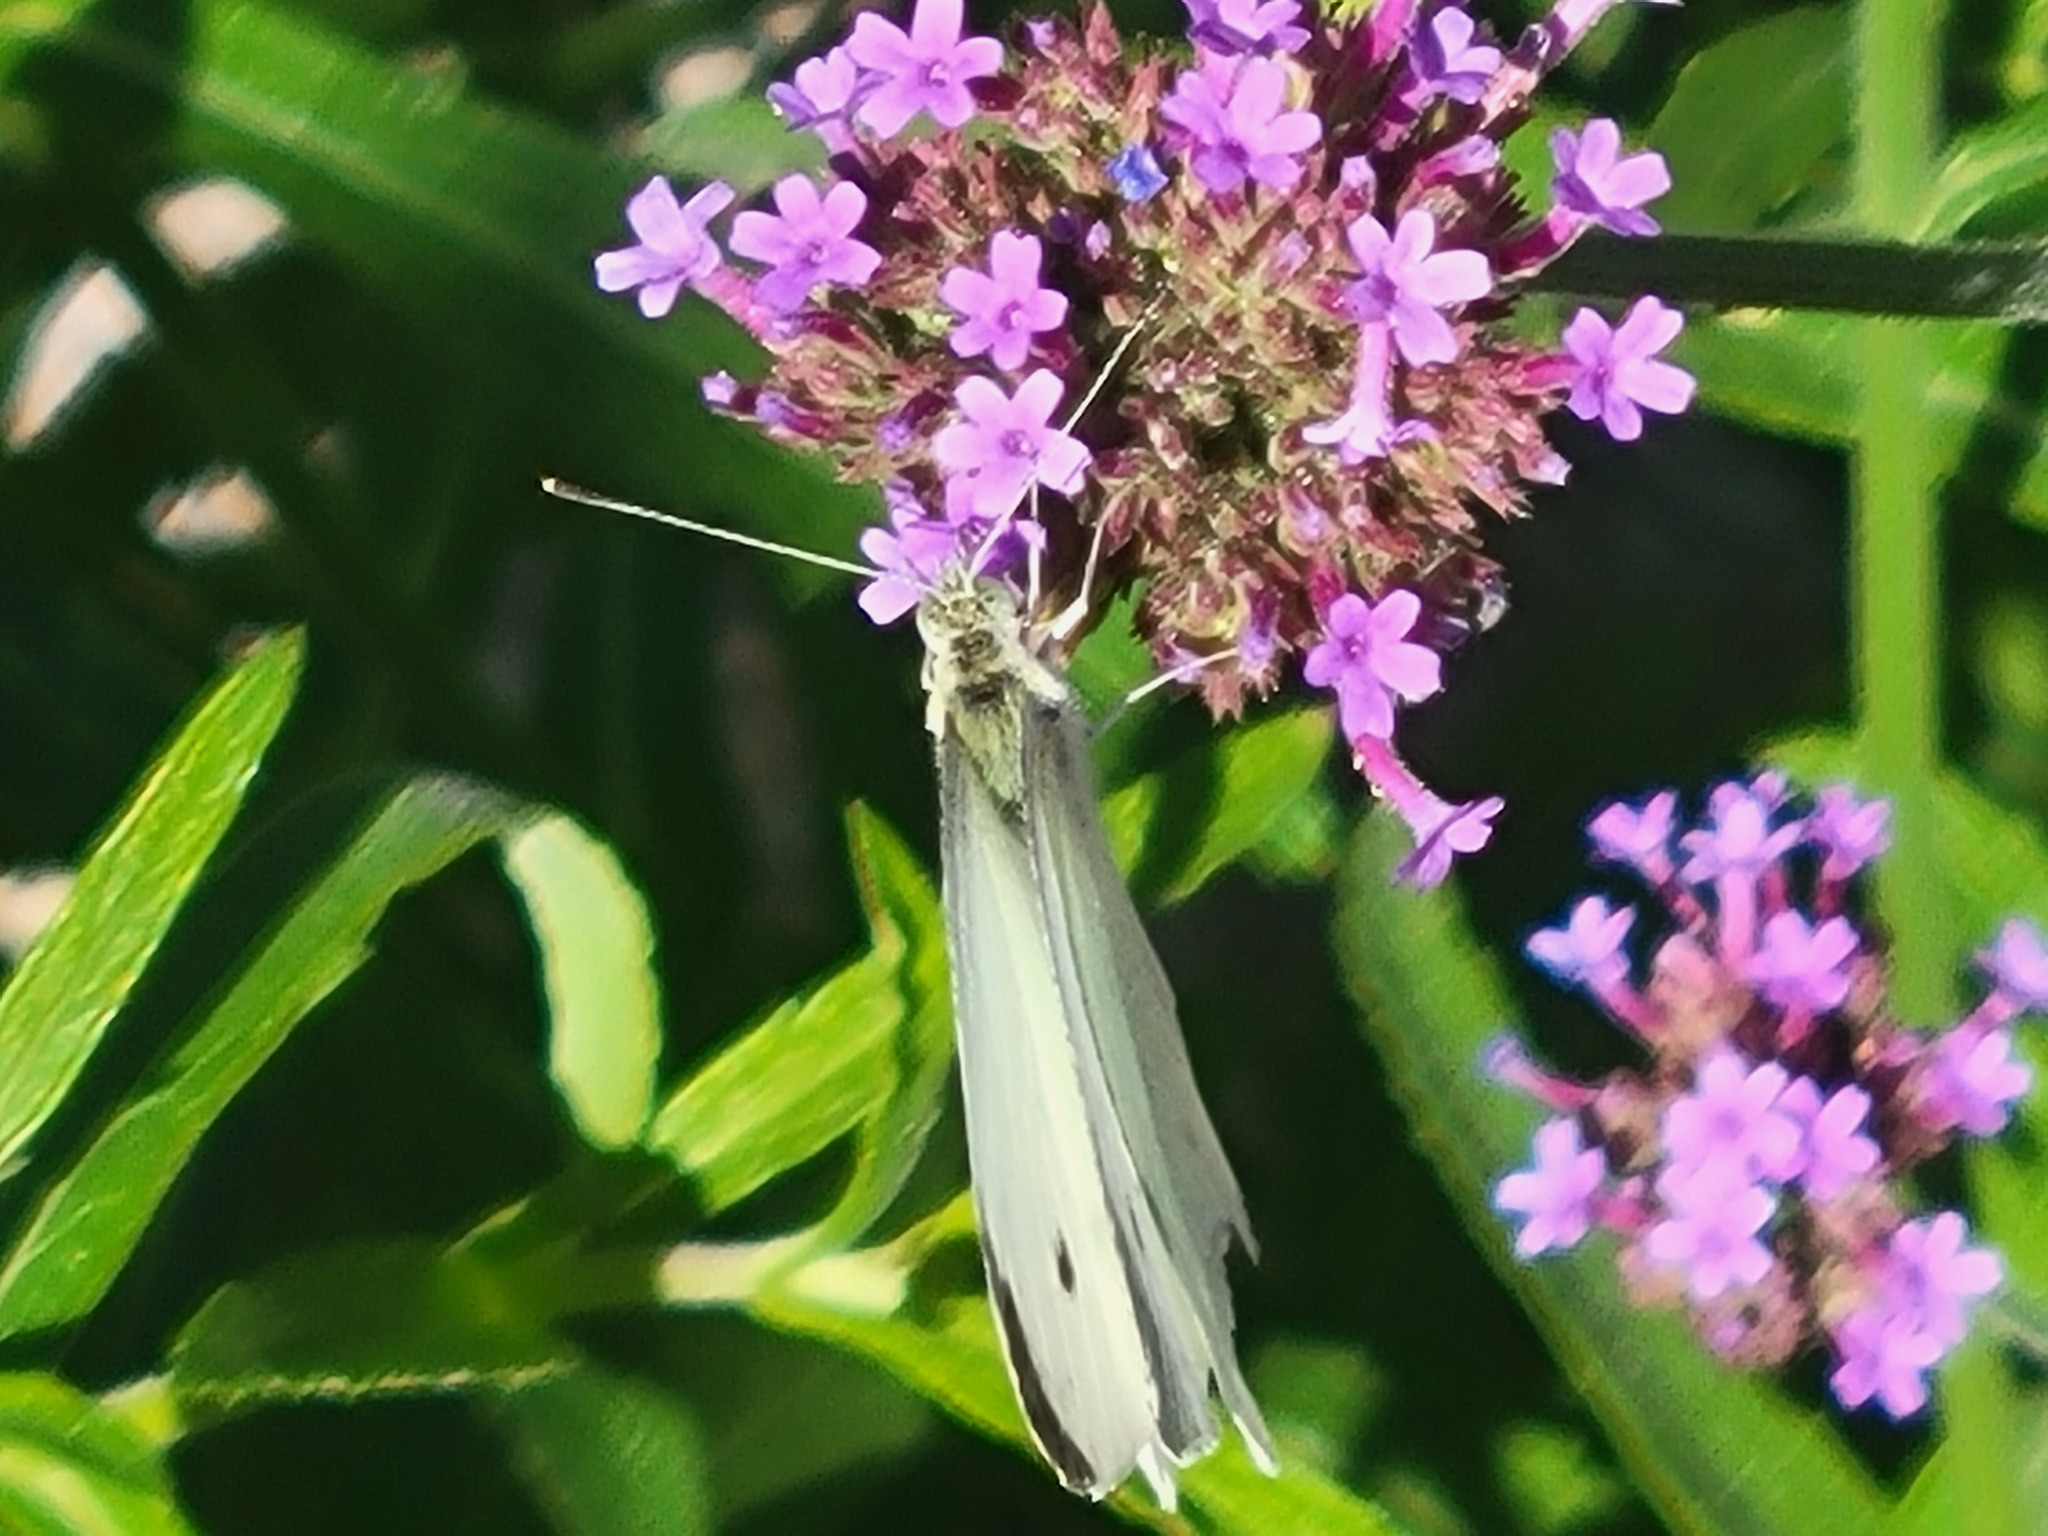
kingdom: Animalia
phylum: Arthropoda
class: Insecta
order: Lepidoptera
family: Pieridae
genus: Pieris
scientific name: Pieris rapae
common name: Small white
